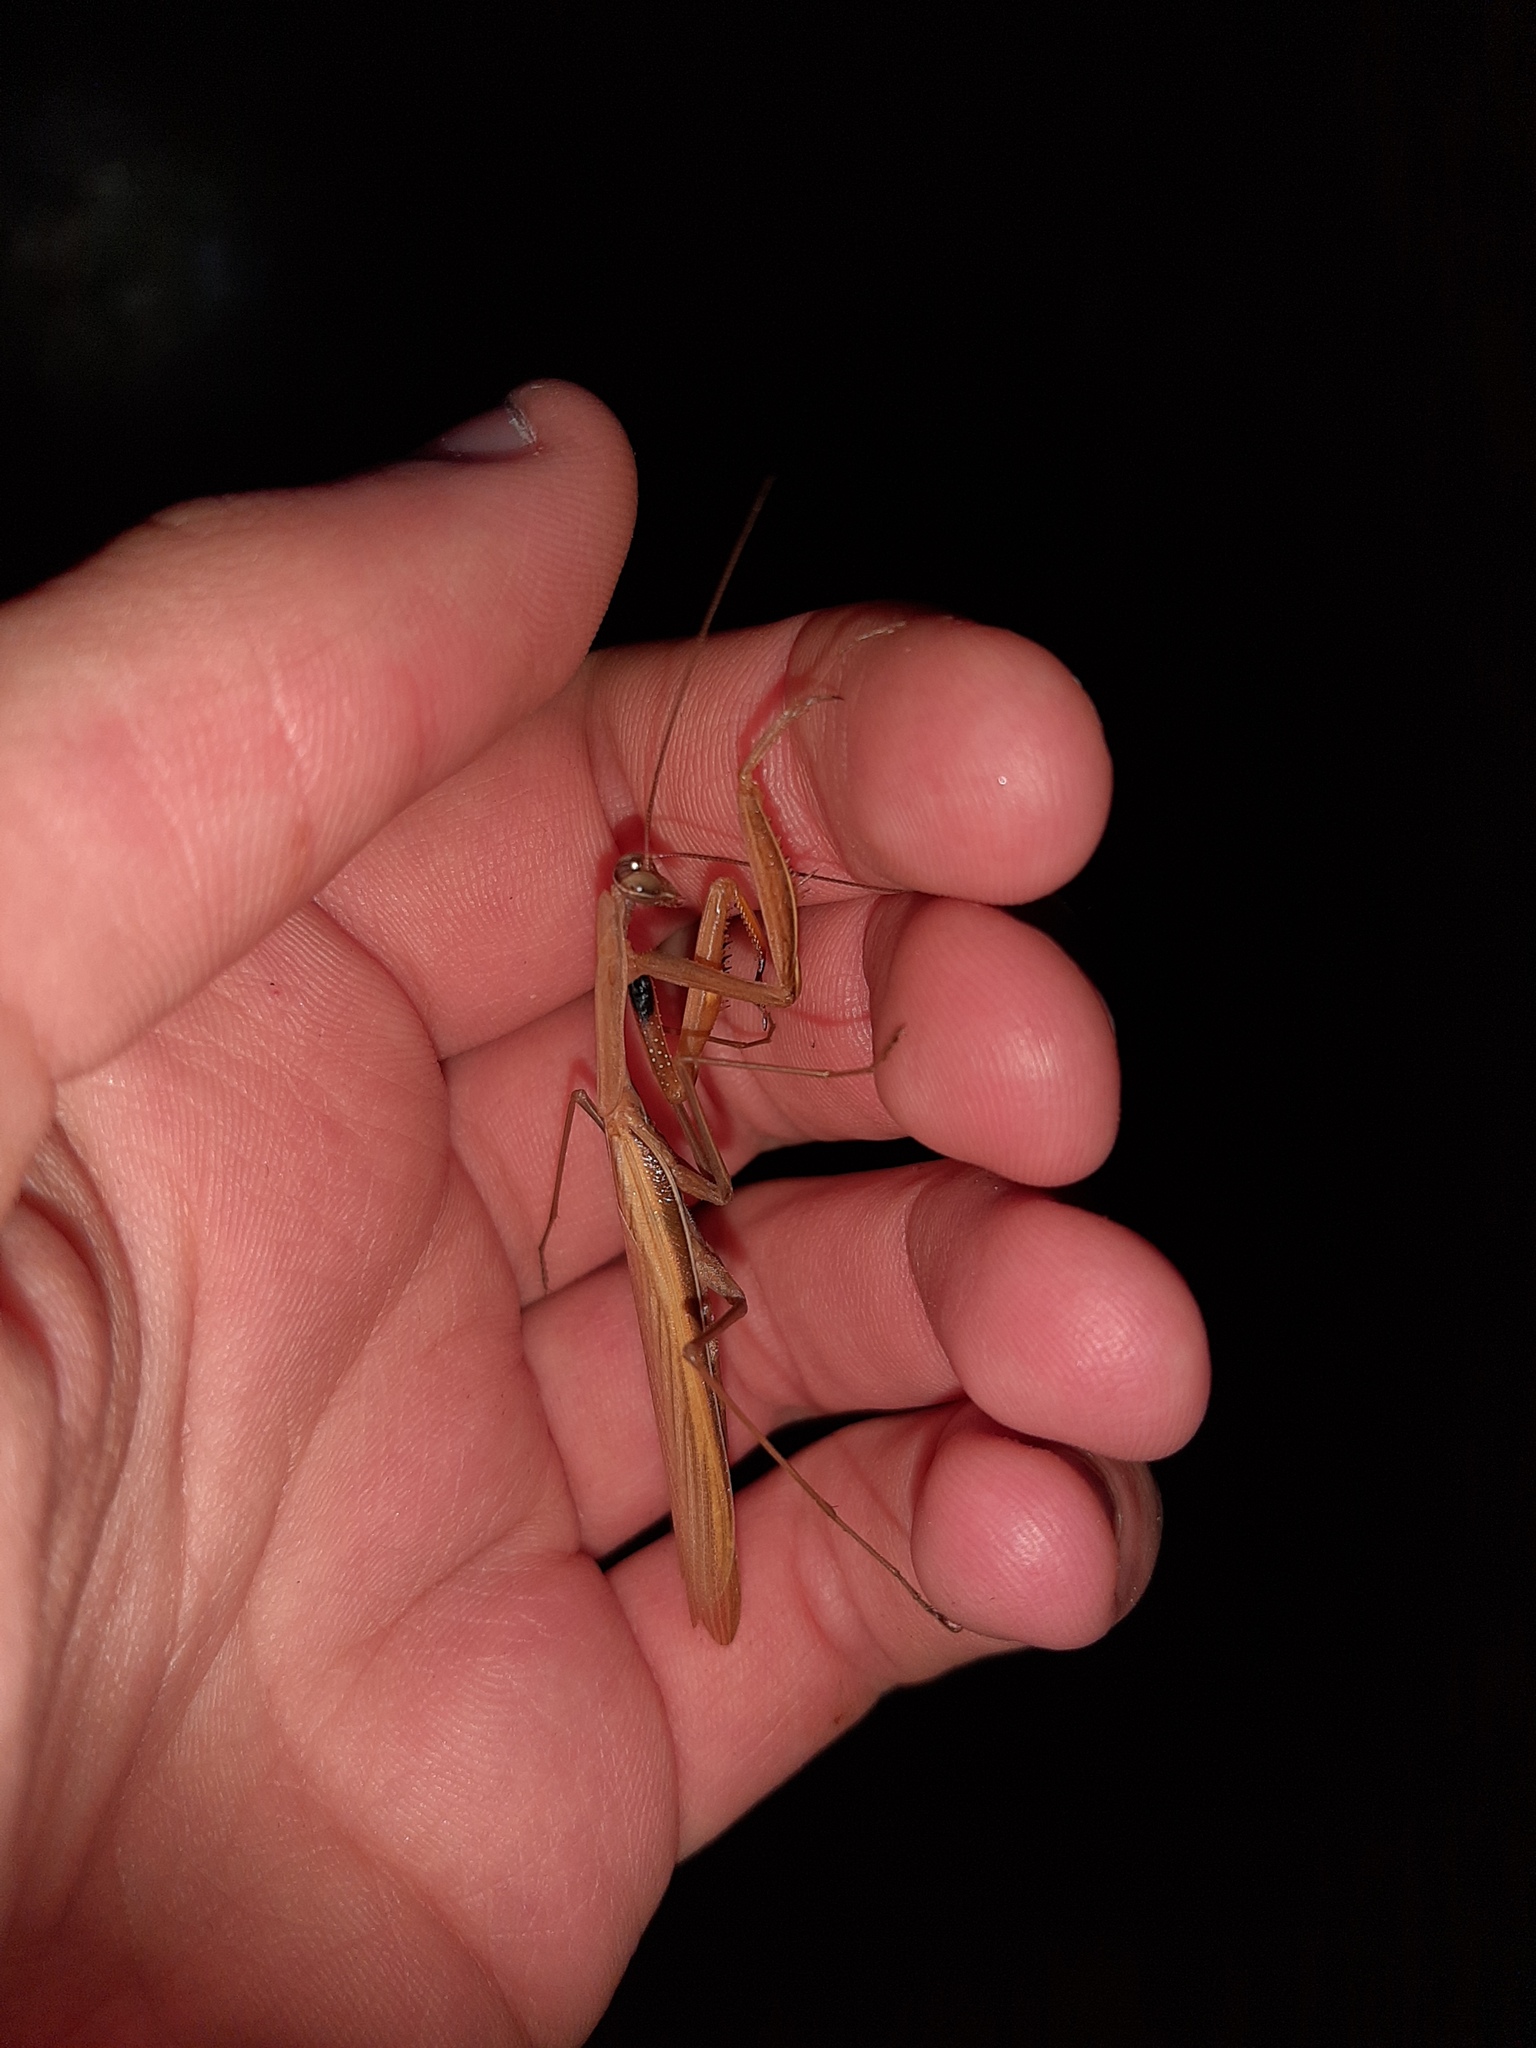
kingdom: Animalia
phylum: Arthropoda
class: Insecta
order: Mantodea
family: Mantidae
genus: Mantis
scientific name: Mantis religiosa
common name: Praying mantis
